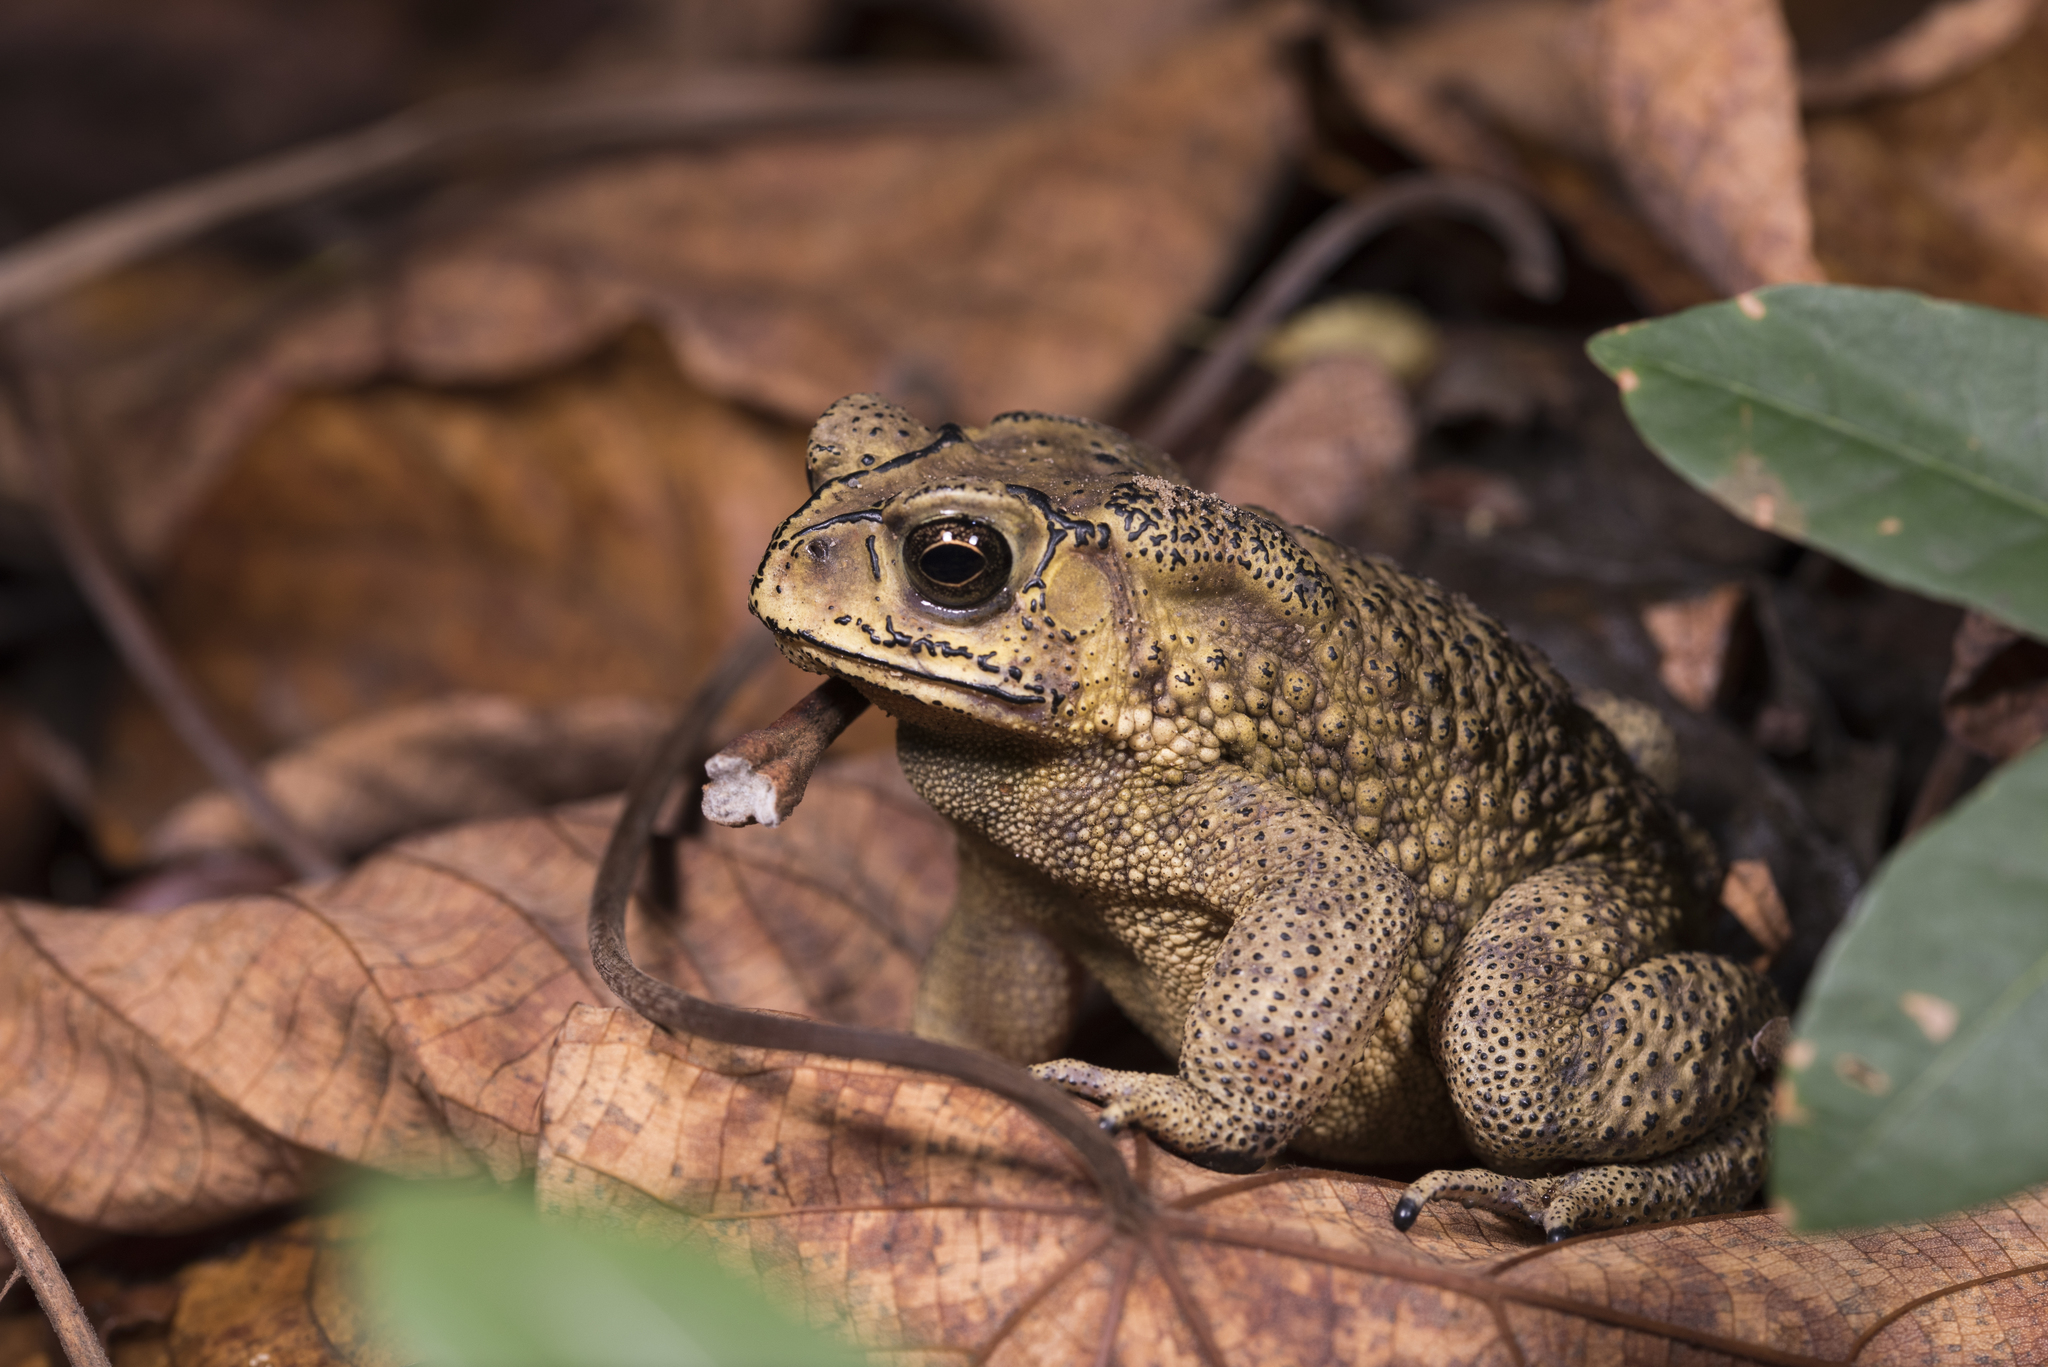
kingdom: Animalia
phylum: Chordata
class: Amphibia
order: Anura
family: Bufonidae
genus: Duttaphrynus
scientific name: Duttaphrynus melanostictus
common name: Common sunda toad
